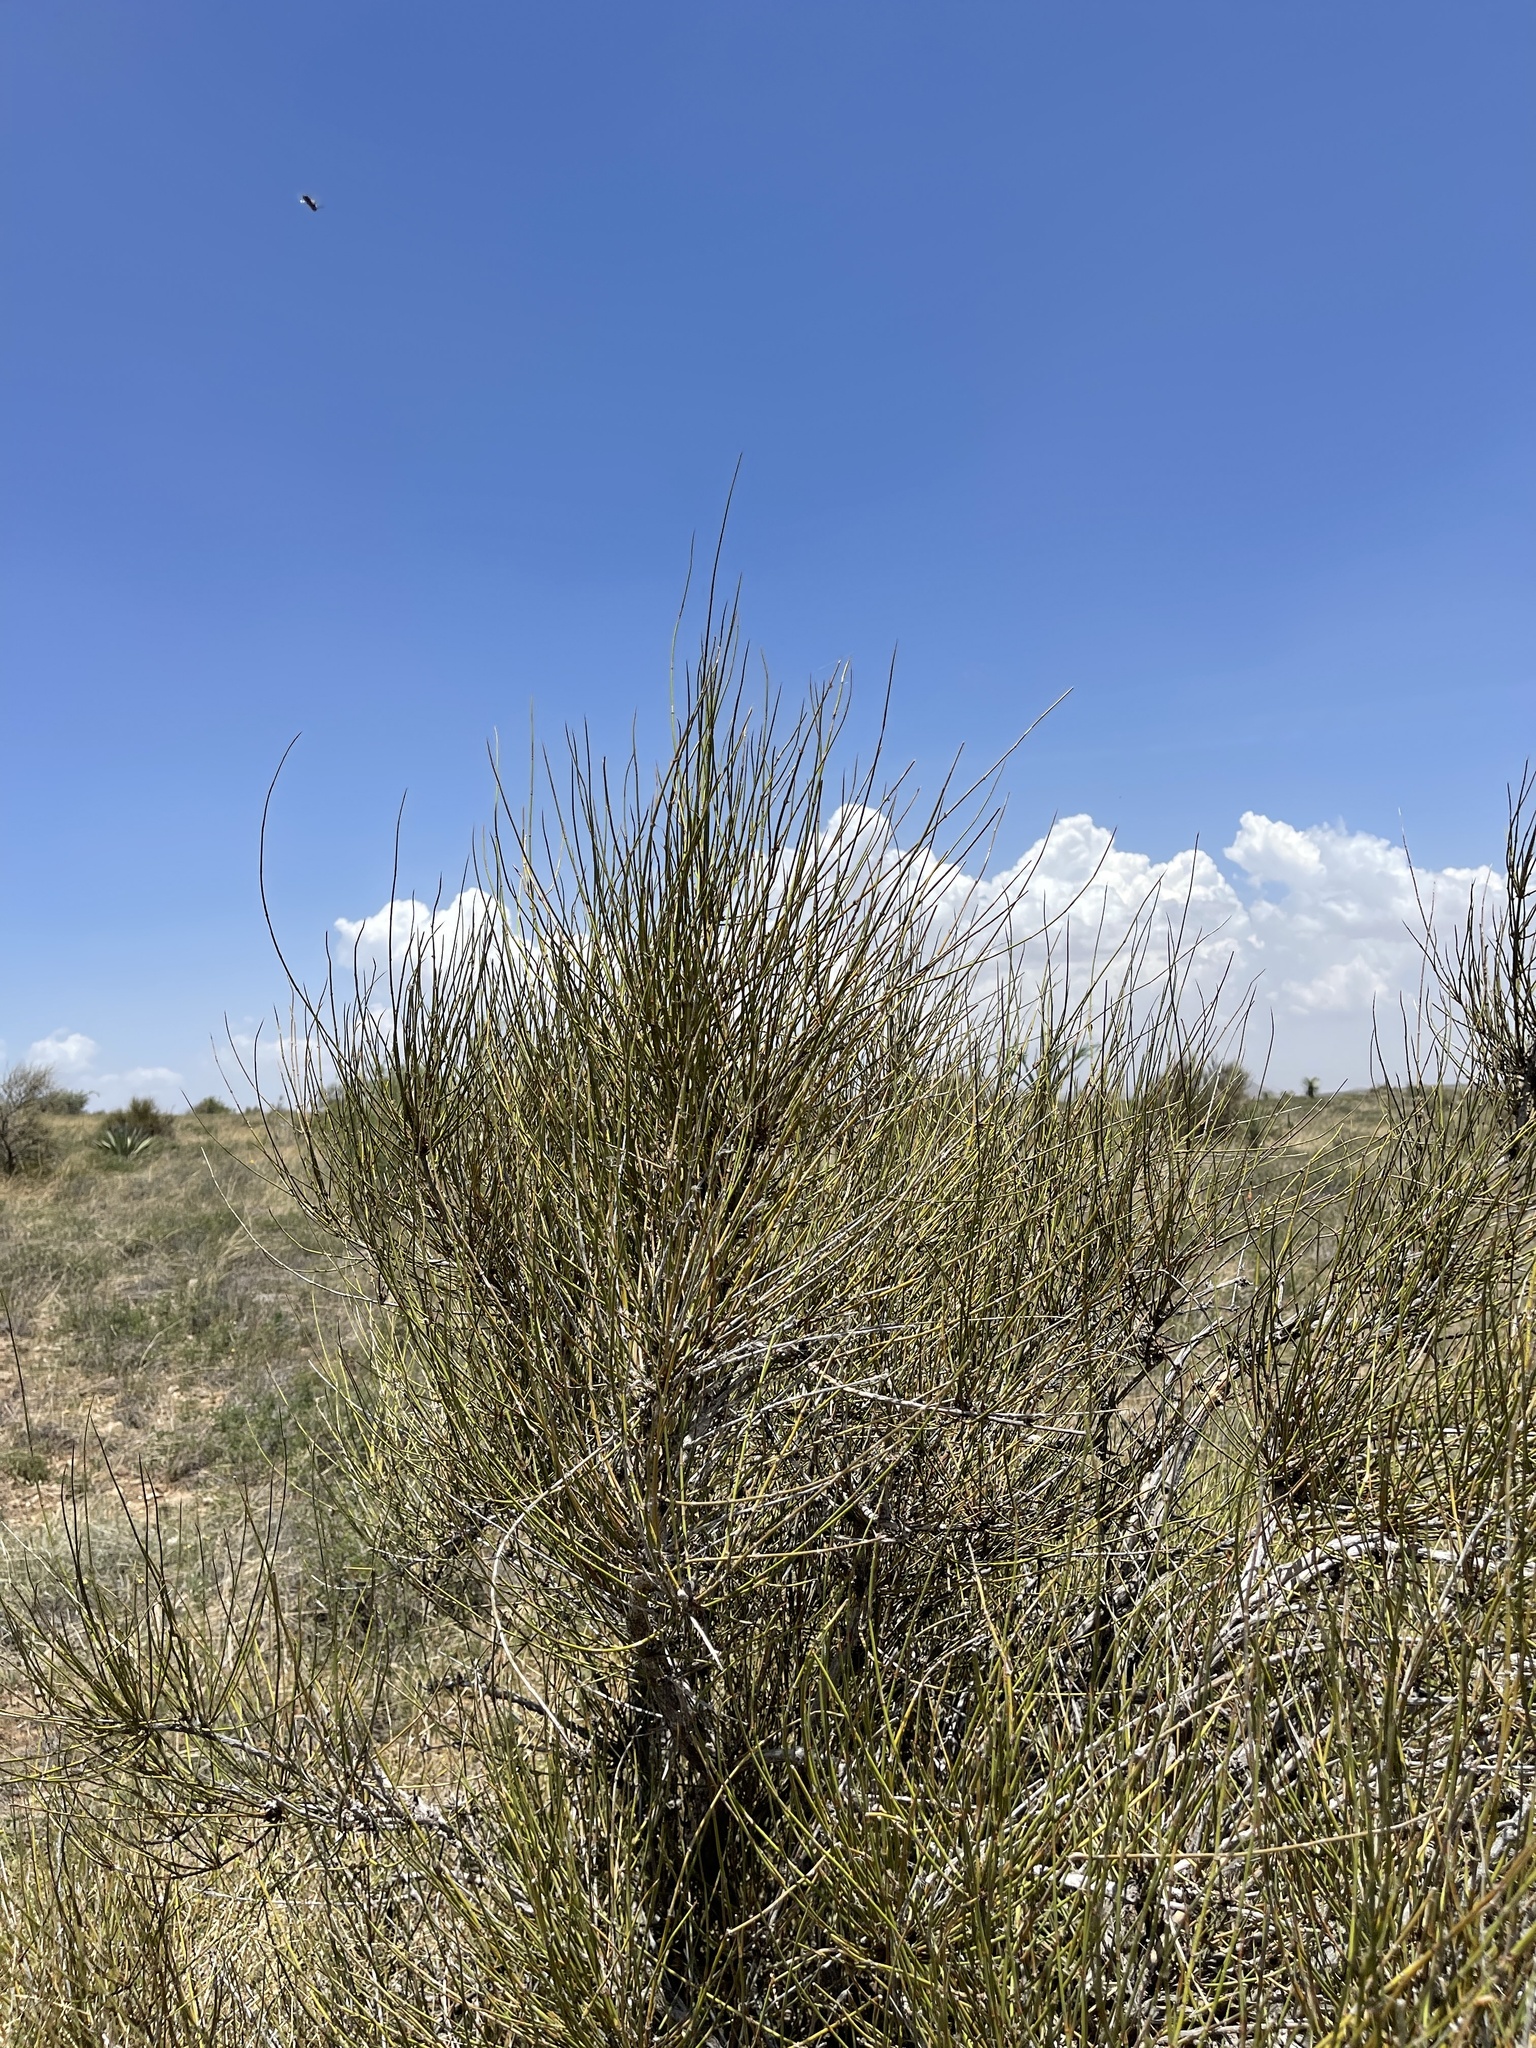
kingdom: Plantae
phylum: Tracheophyta
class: Gnetopsida
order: Ephedrales
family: Ephedraceae
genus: Ephedra
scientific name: Ephedra trifurca
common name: Mexican-tea
